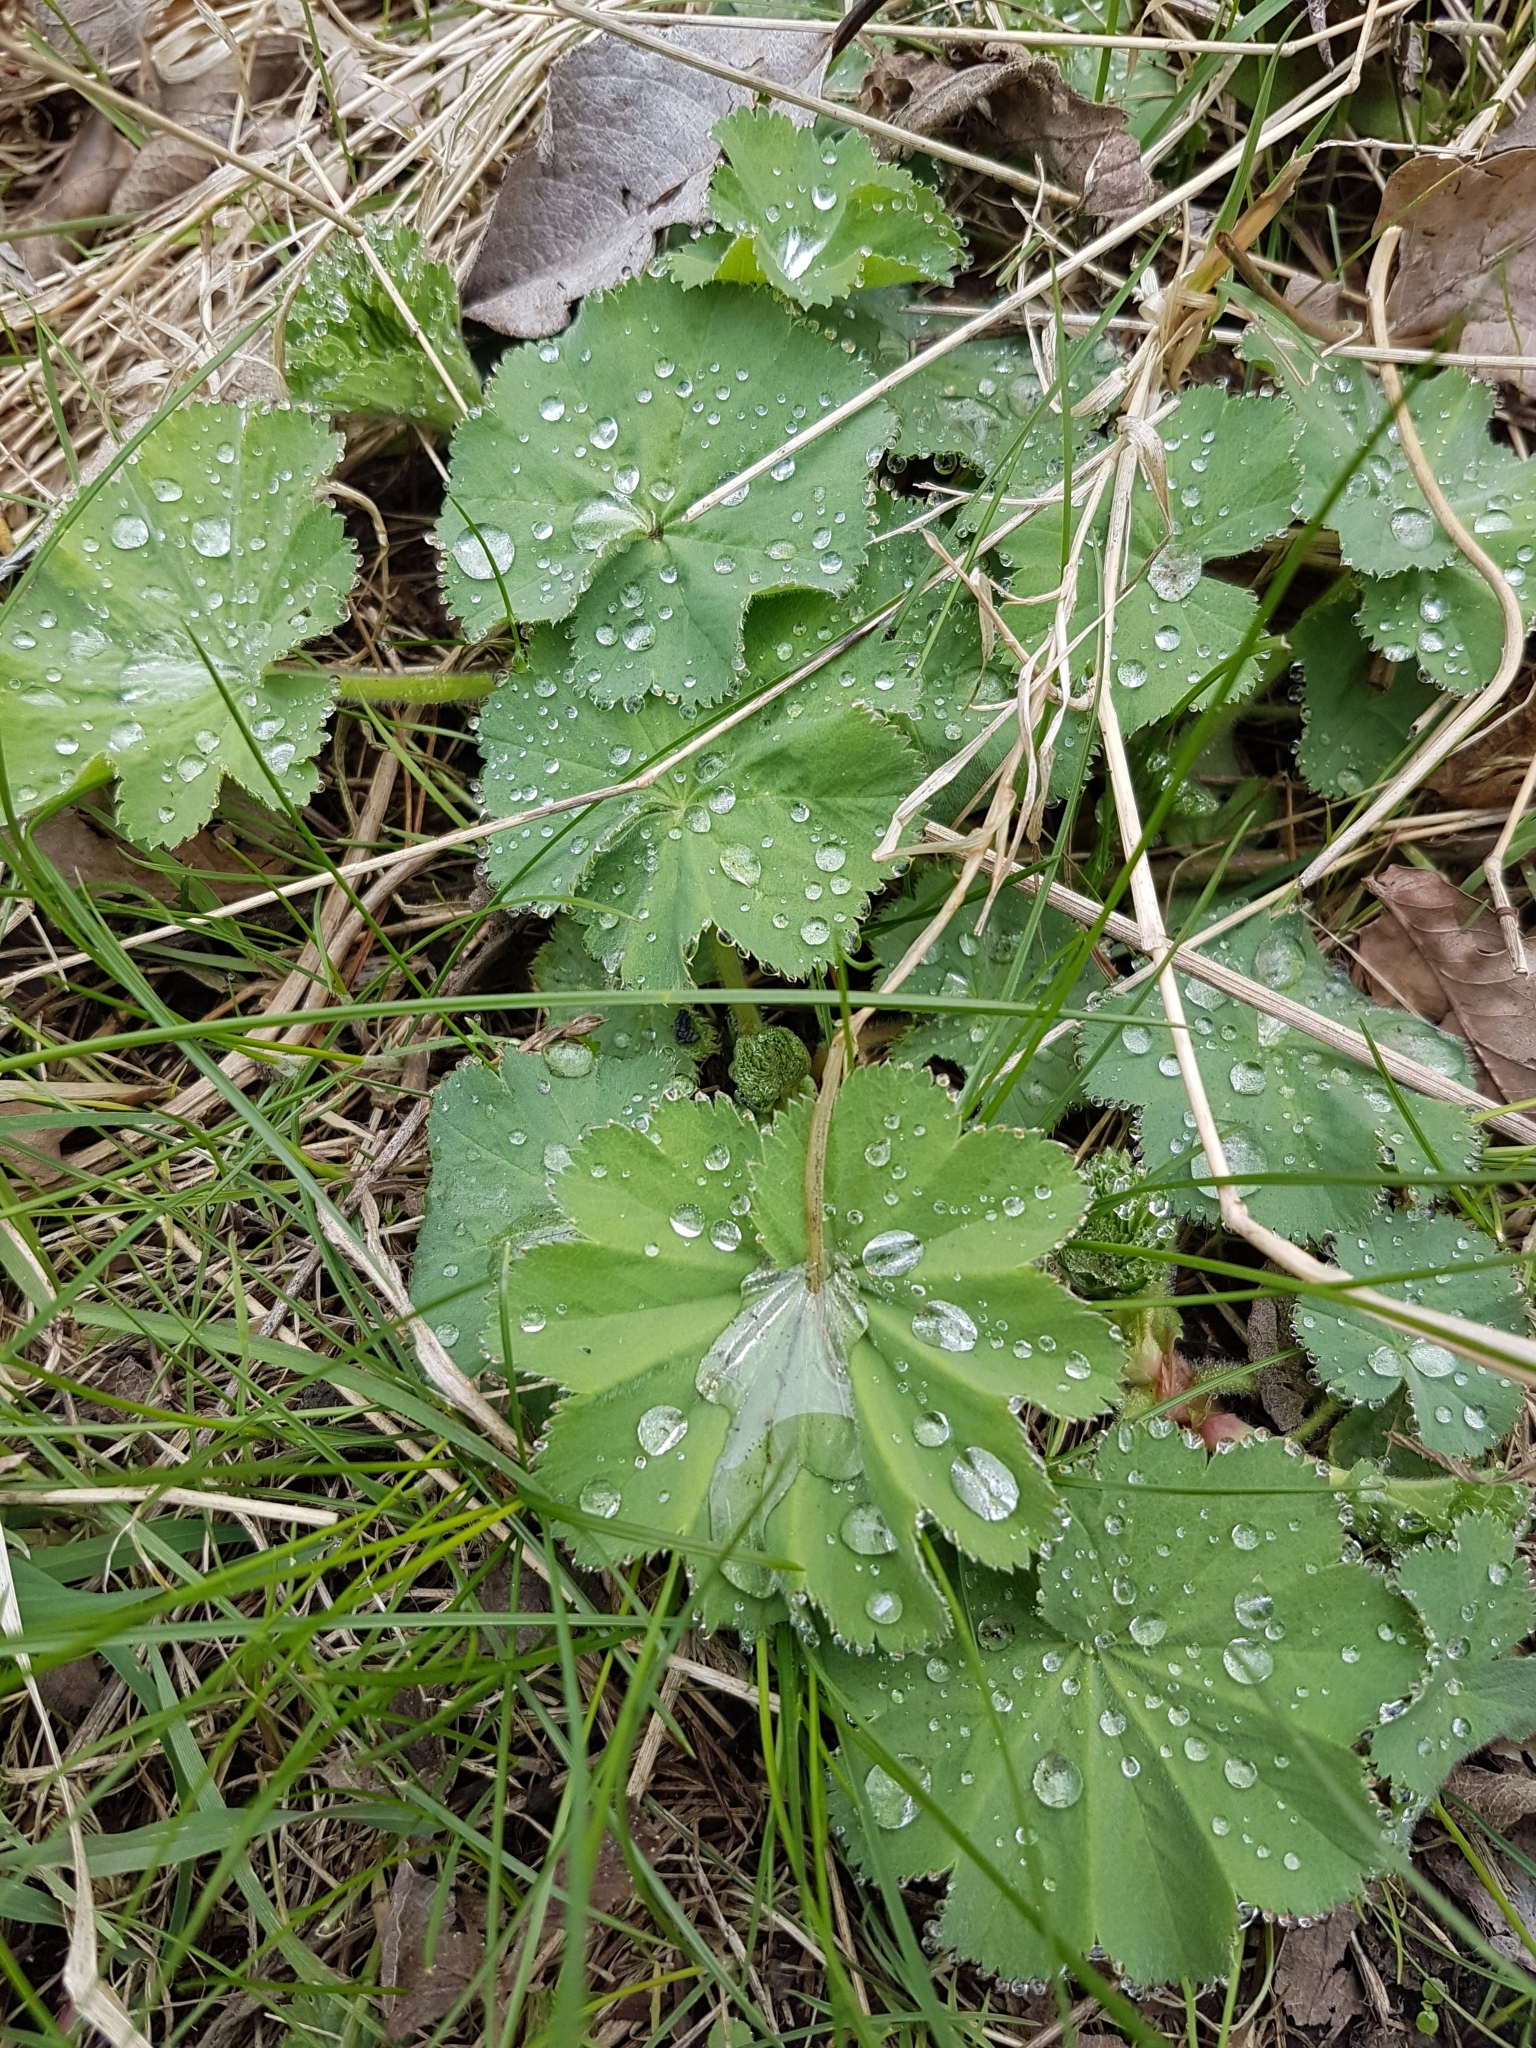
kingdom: Plantae
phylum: Tracheophyta
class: Magnoliopsida
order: Rosales
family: Rosaceae
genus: Alchemilla
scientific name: Alchemilla mollis
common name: Lady's-mantle
